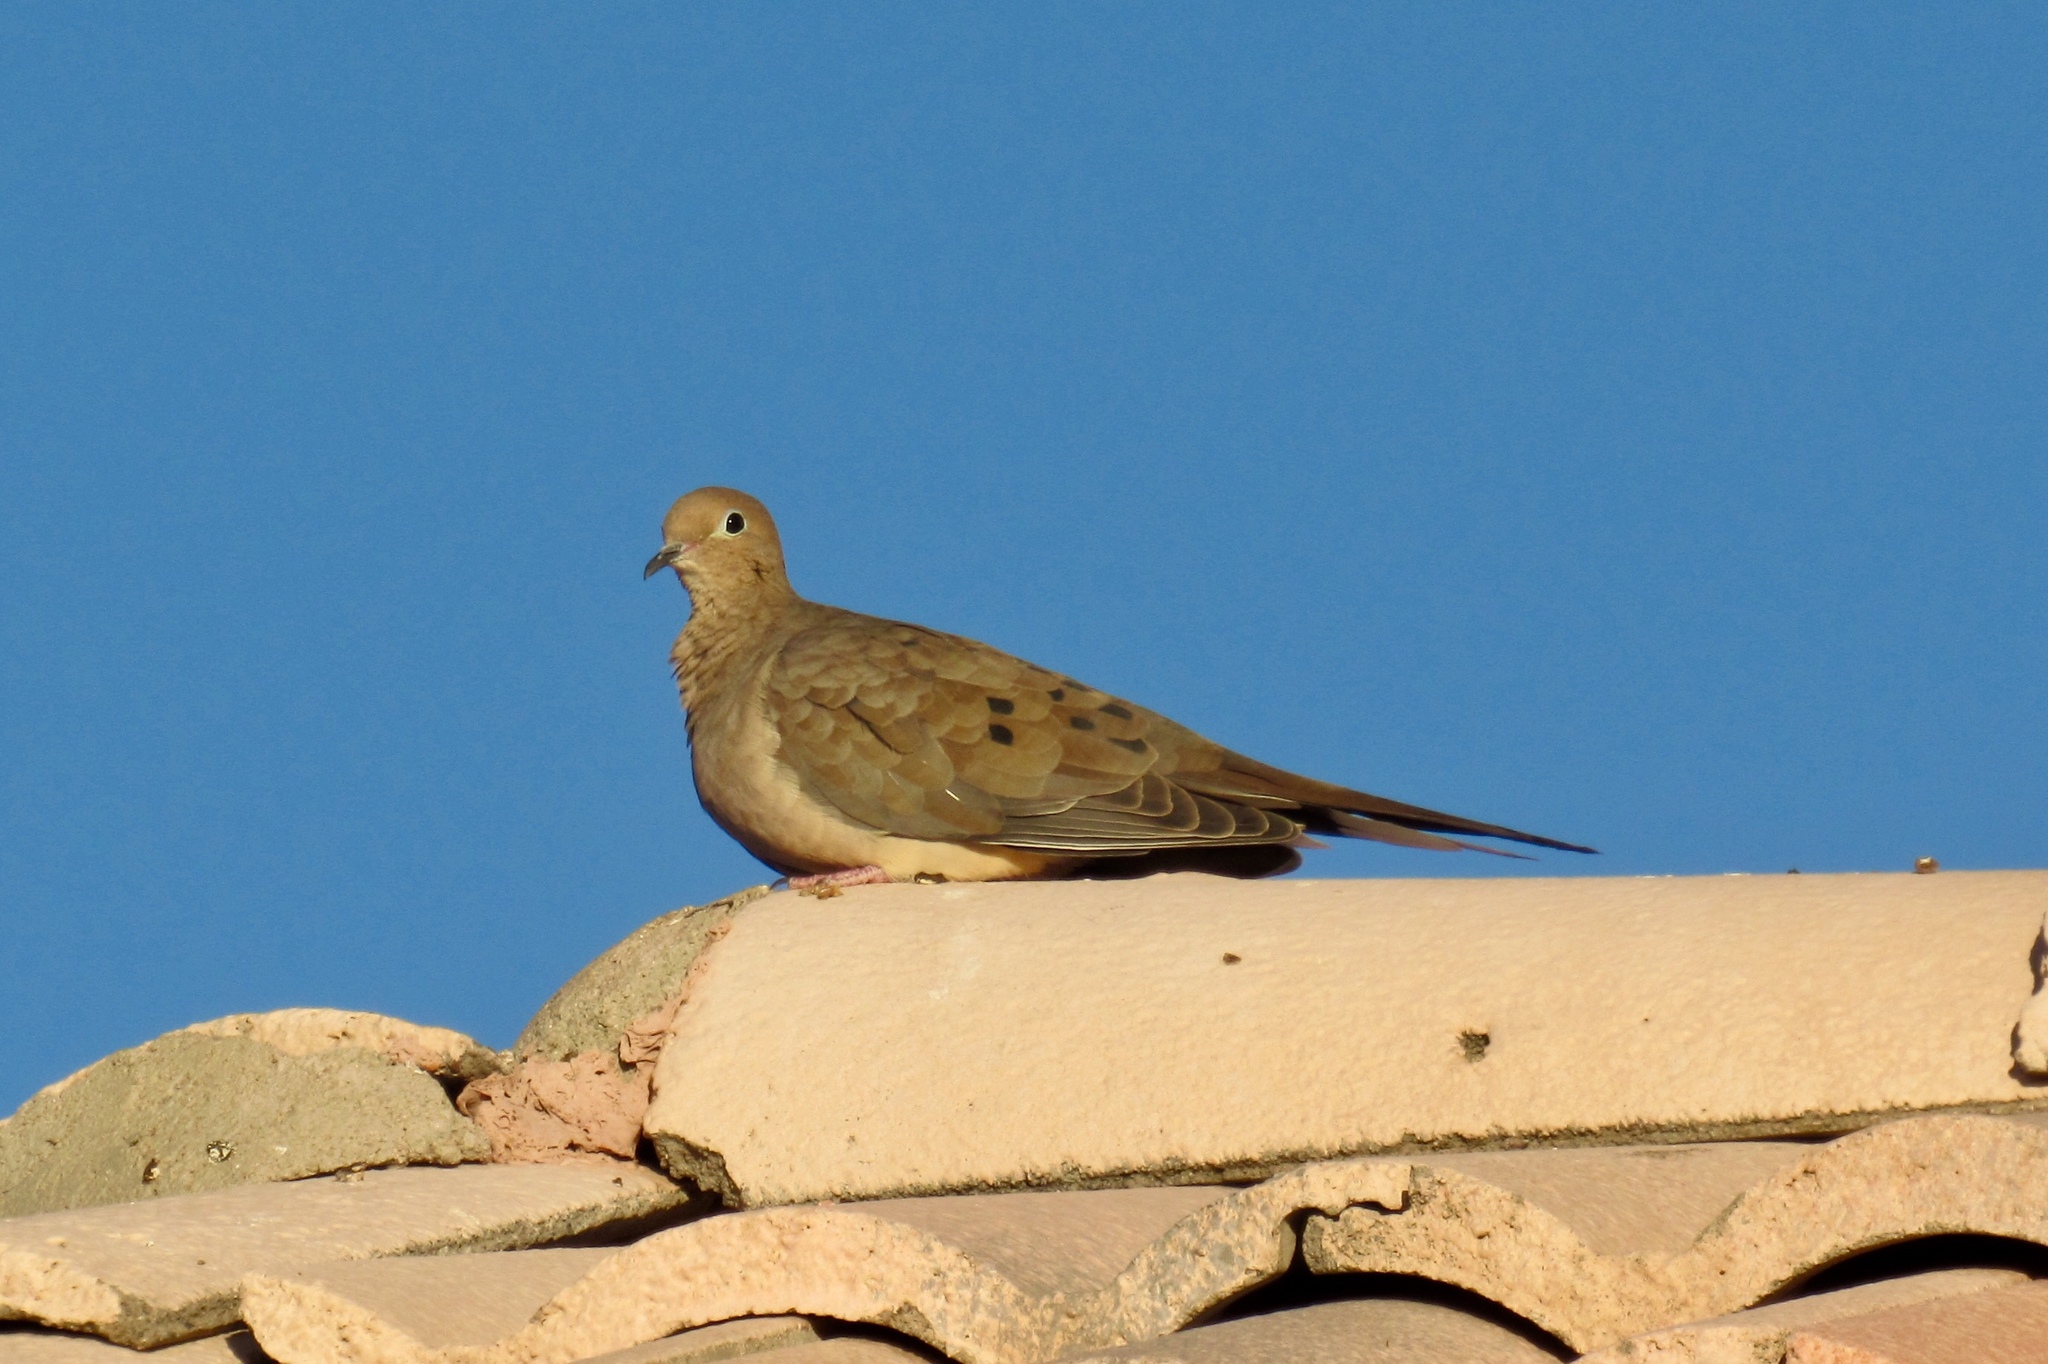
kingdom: Animalia
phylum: Chordata
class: Aves
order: Columbiformes
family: Columbidae
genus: Zenaida
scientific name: Zenaida macroura
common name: Mourning dove
